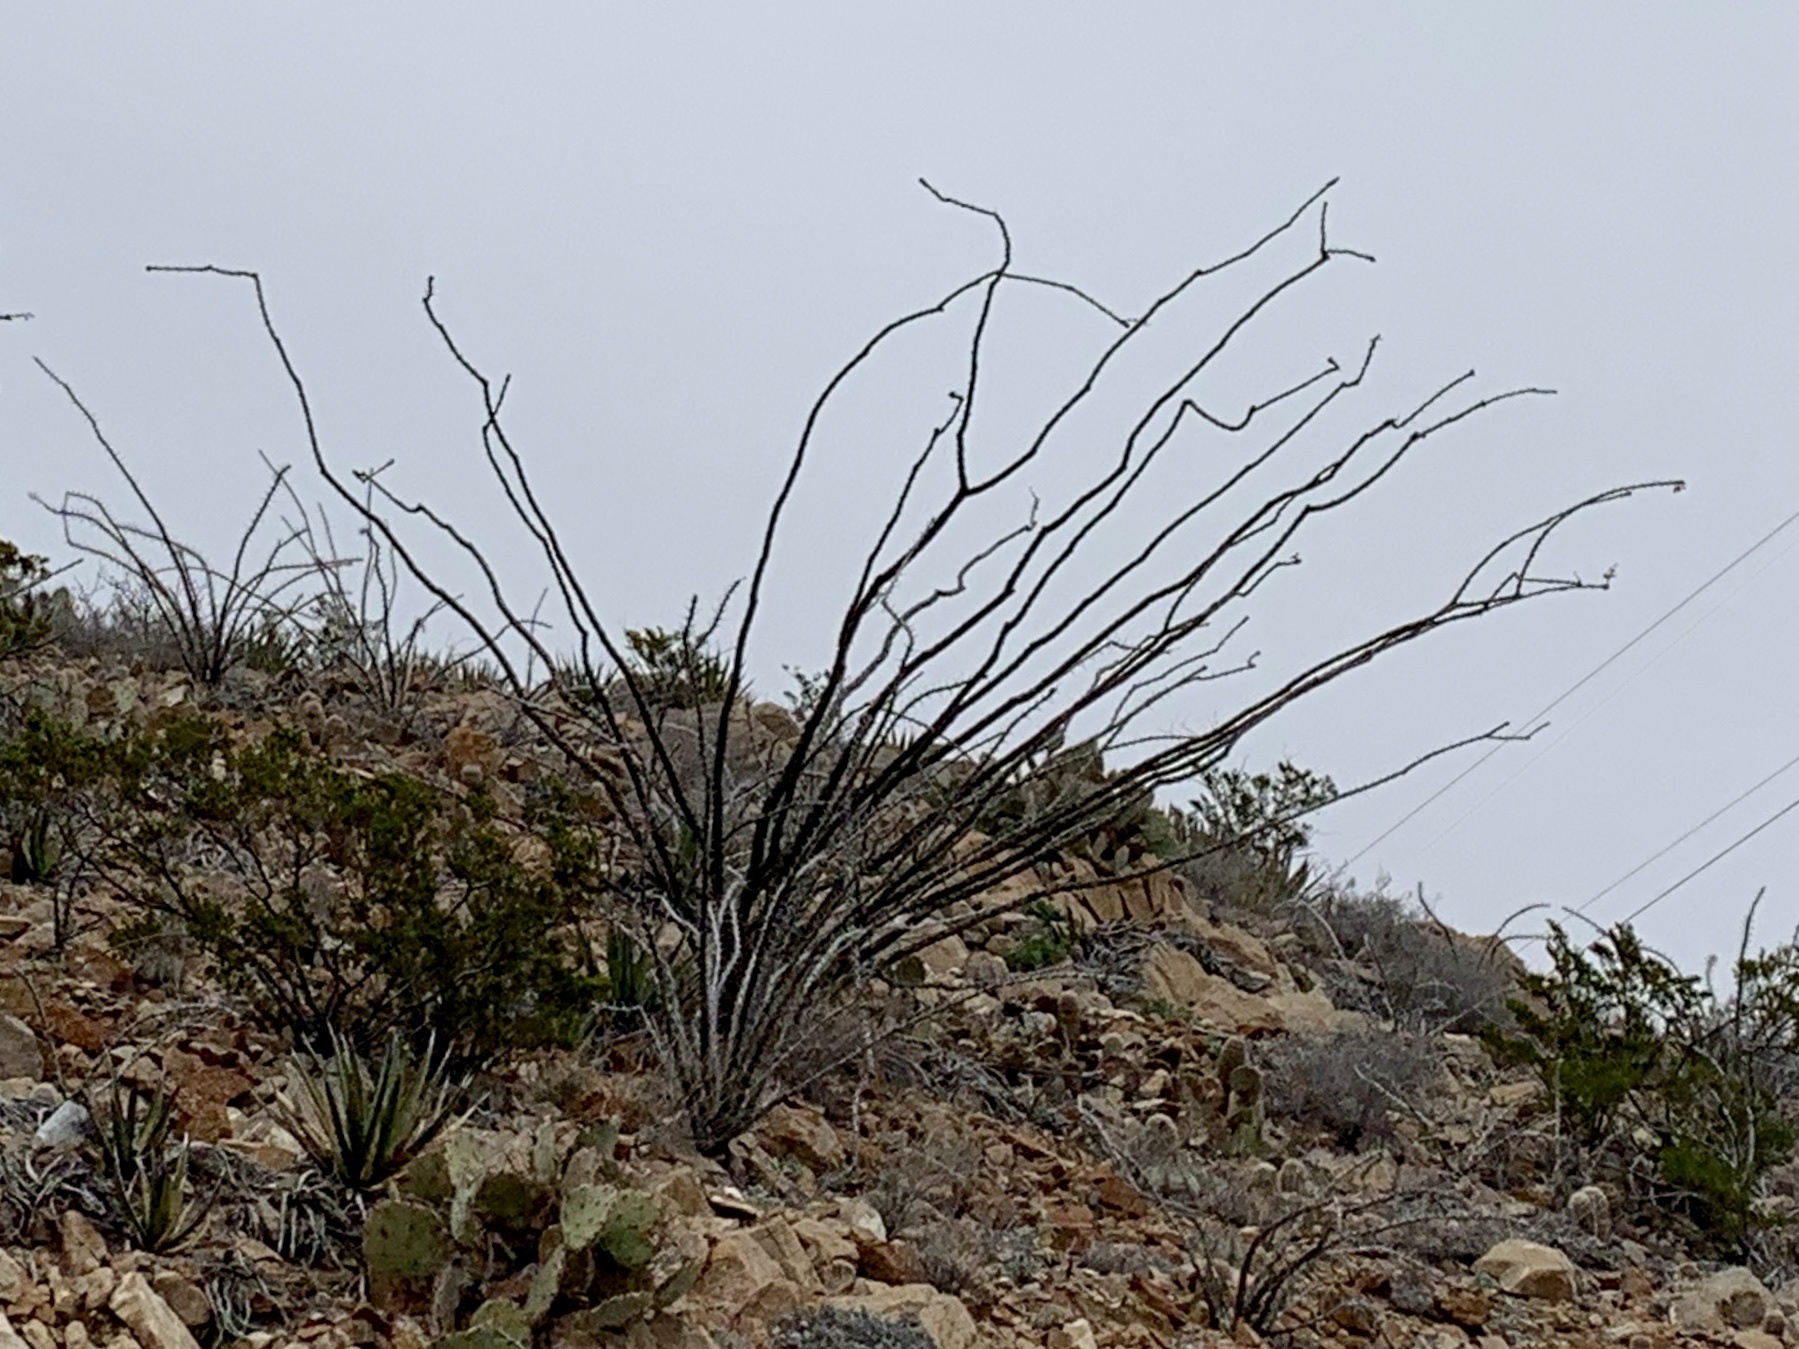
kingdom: Plantae
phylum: Tracheophyta
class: Magnoliopsida
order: Ericales
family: Fouquieriaceae
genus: Fouquieria
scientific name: Fouquieria splendens
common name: Vine-cactus
